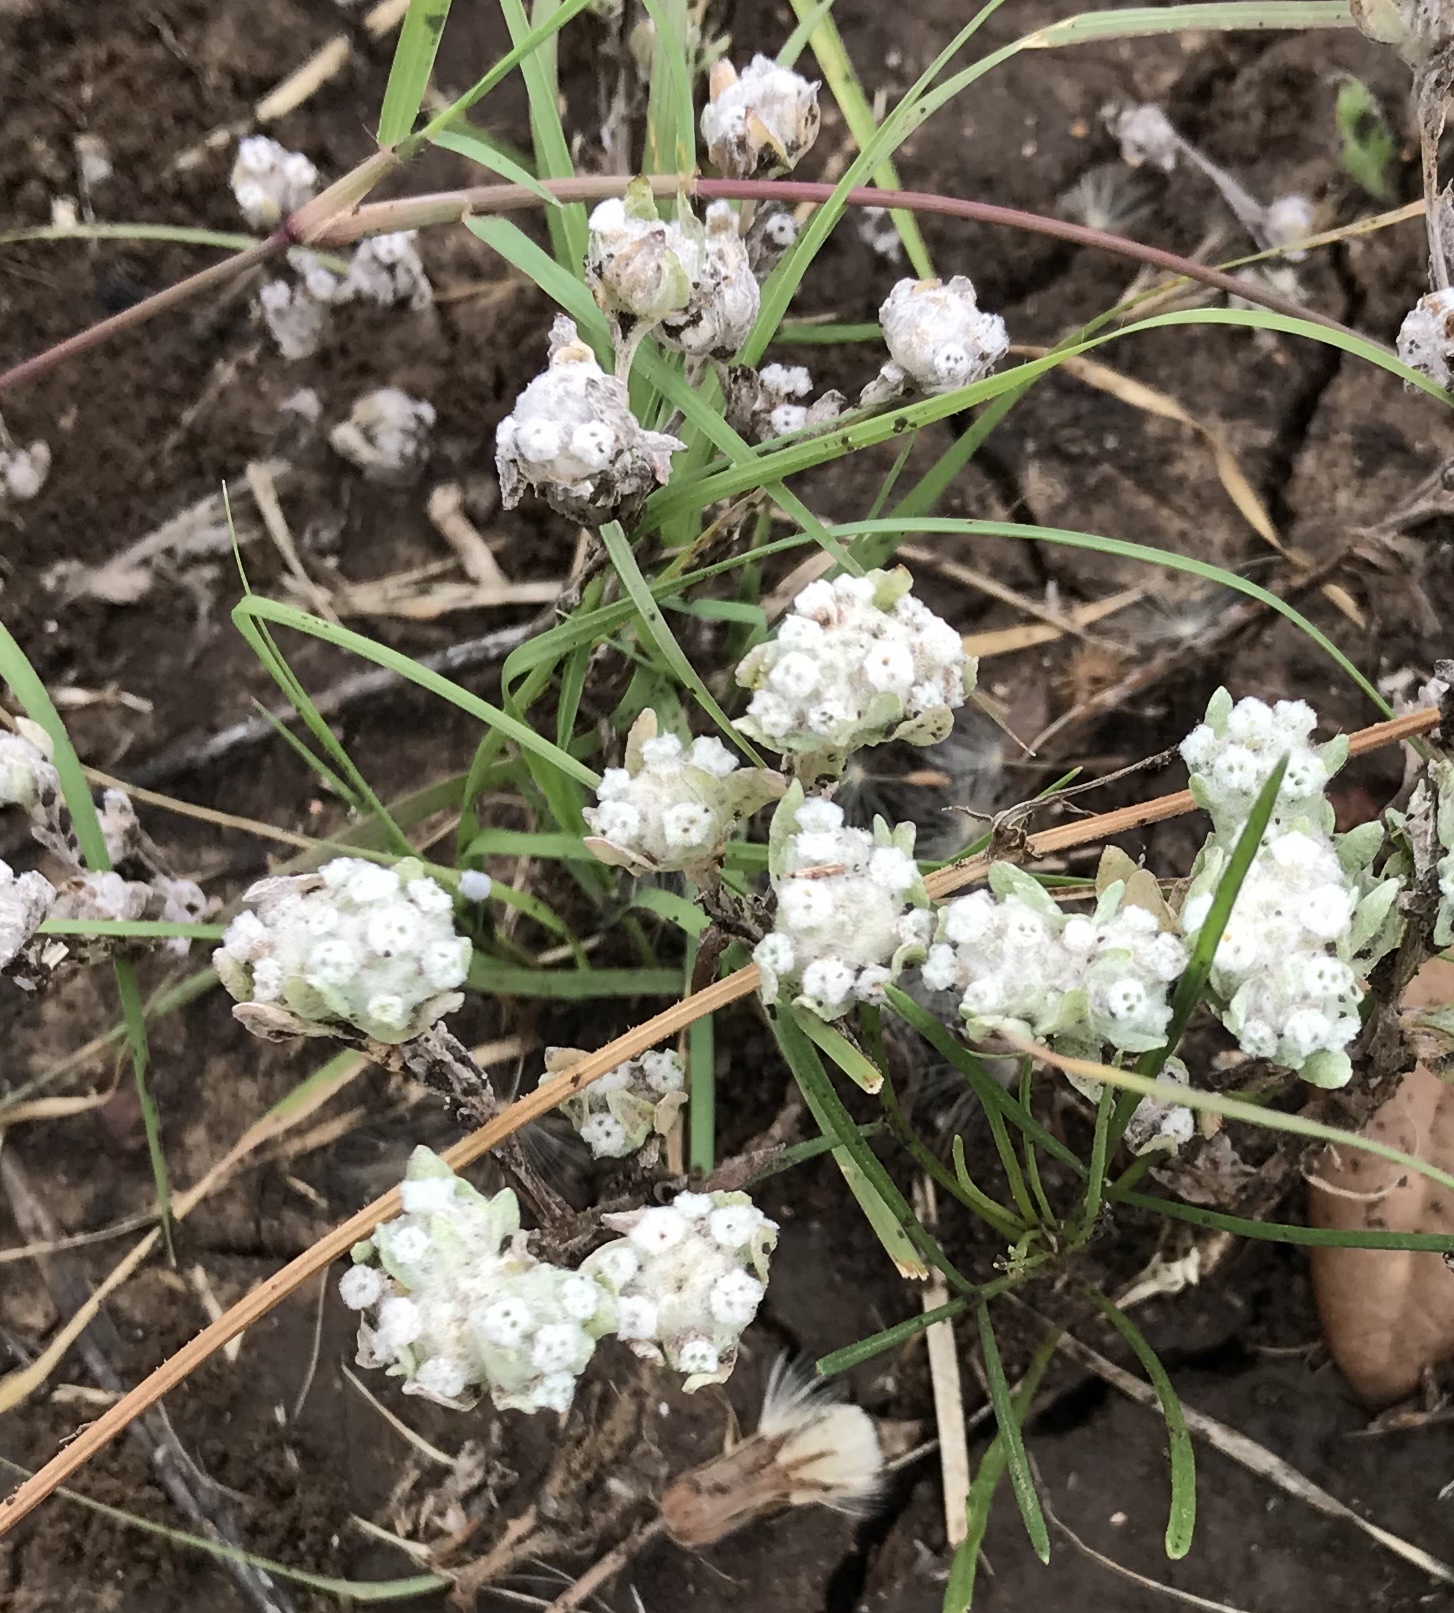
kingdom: Plantae
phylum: Tracheophyta
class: Magnoliopsida
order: Asterales
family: Asteraceae
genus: Diaperia
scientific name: Diaperia verna
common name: Many-stem rabbit-tobacco
